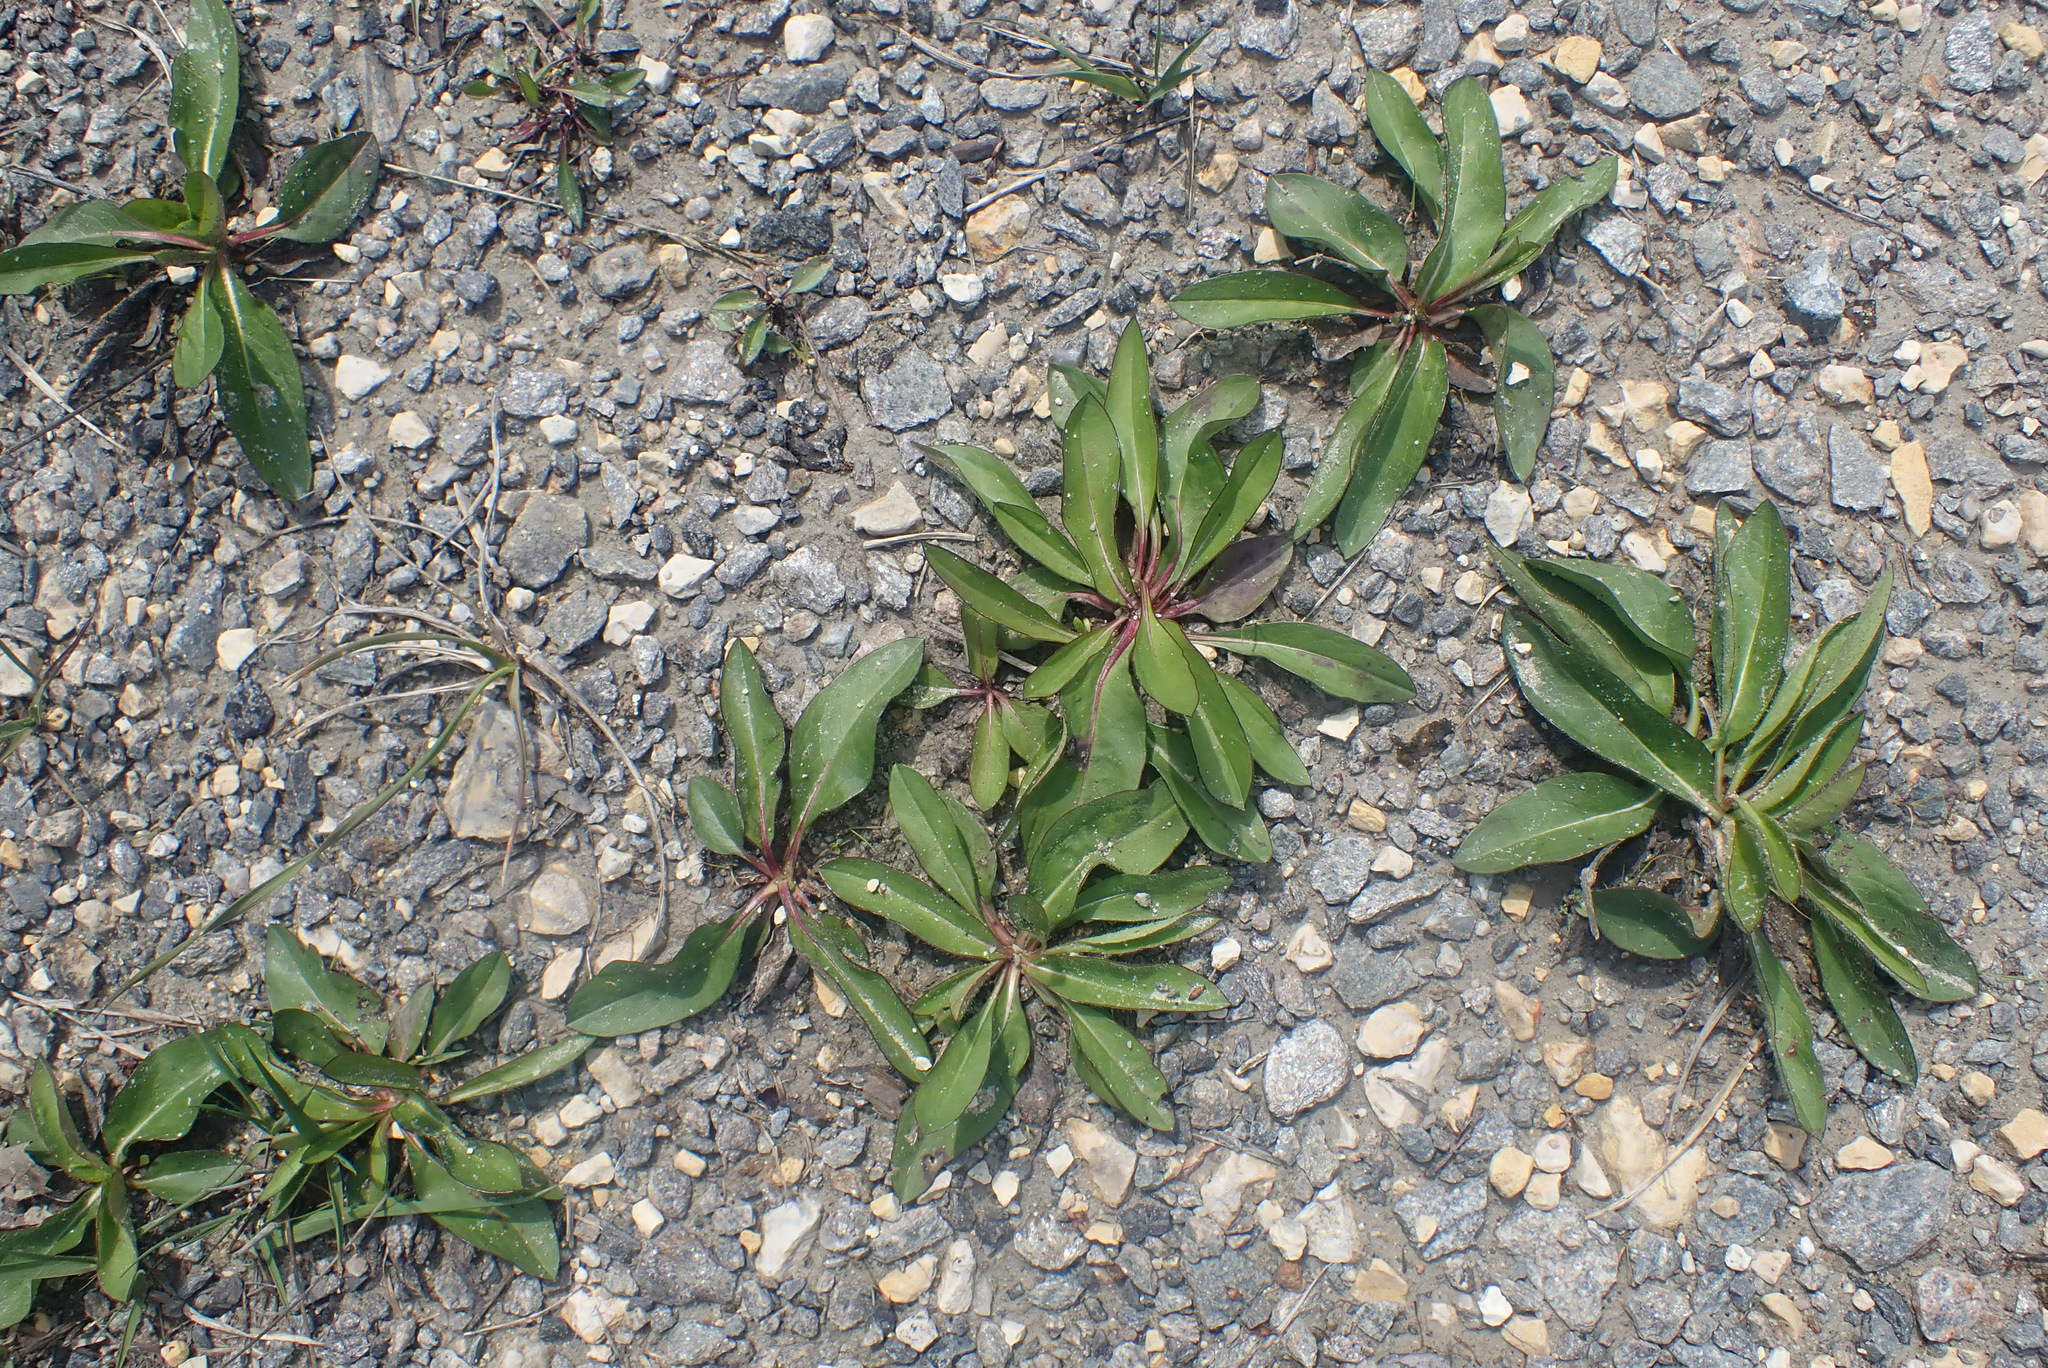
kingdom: Plantae
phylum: Tracheophyta
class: Magnoliopsida
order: Dipsacales
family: Caprifoliaceae
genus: Succisa
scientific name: Succisa pratensis
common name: Devil's-bit
